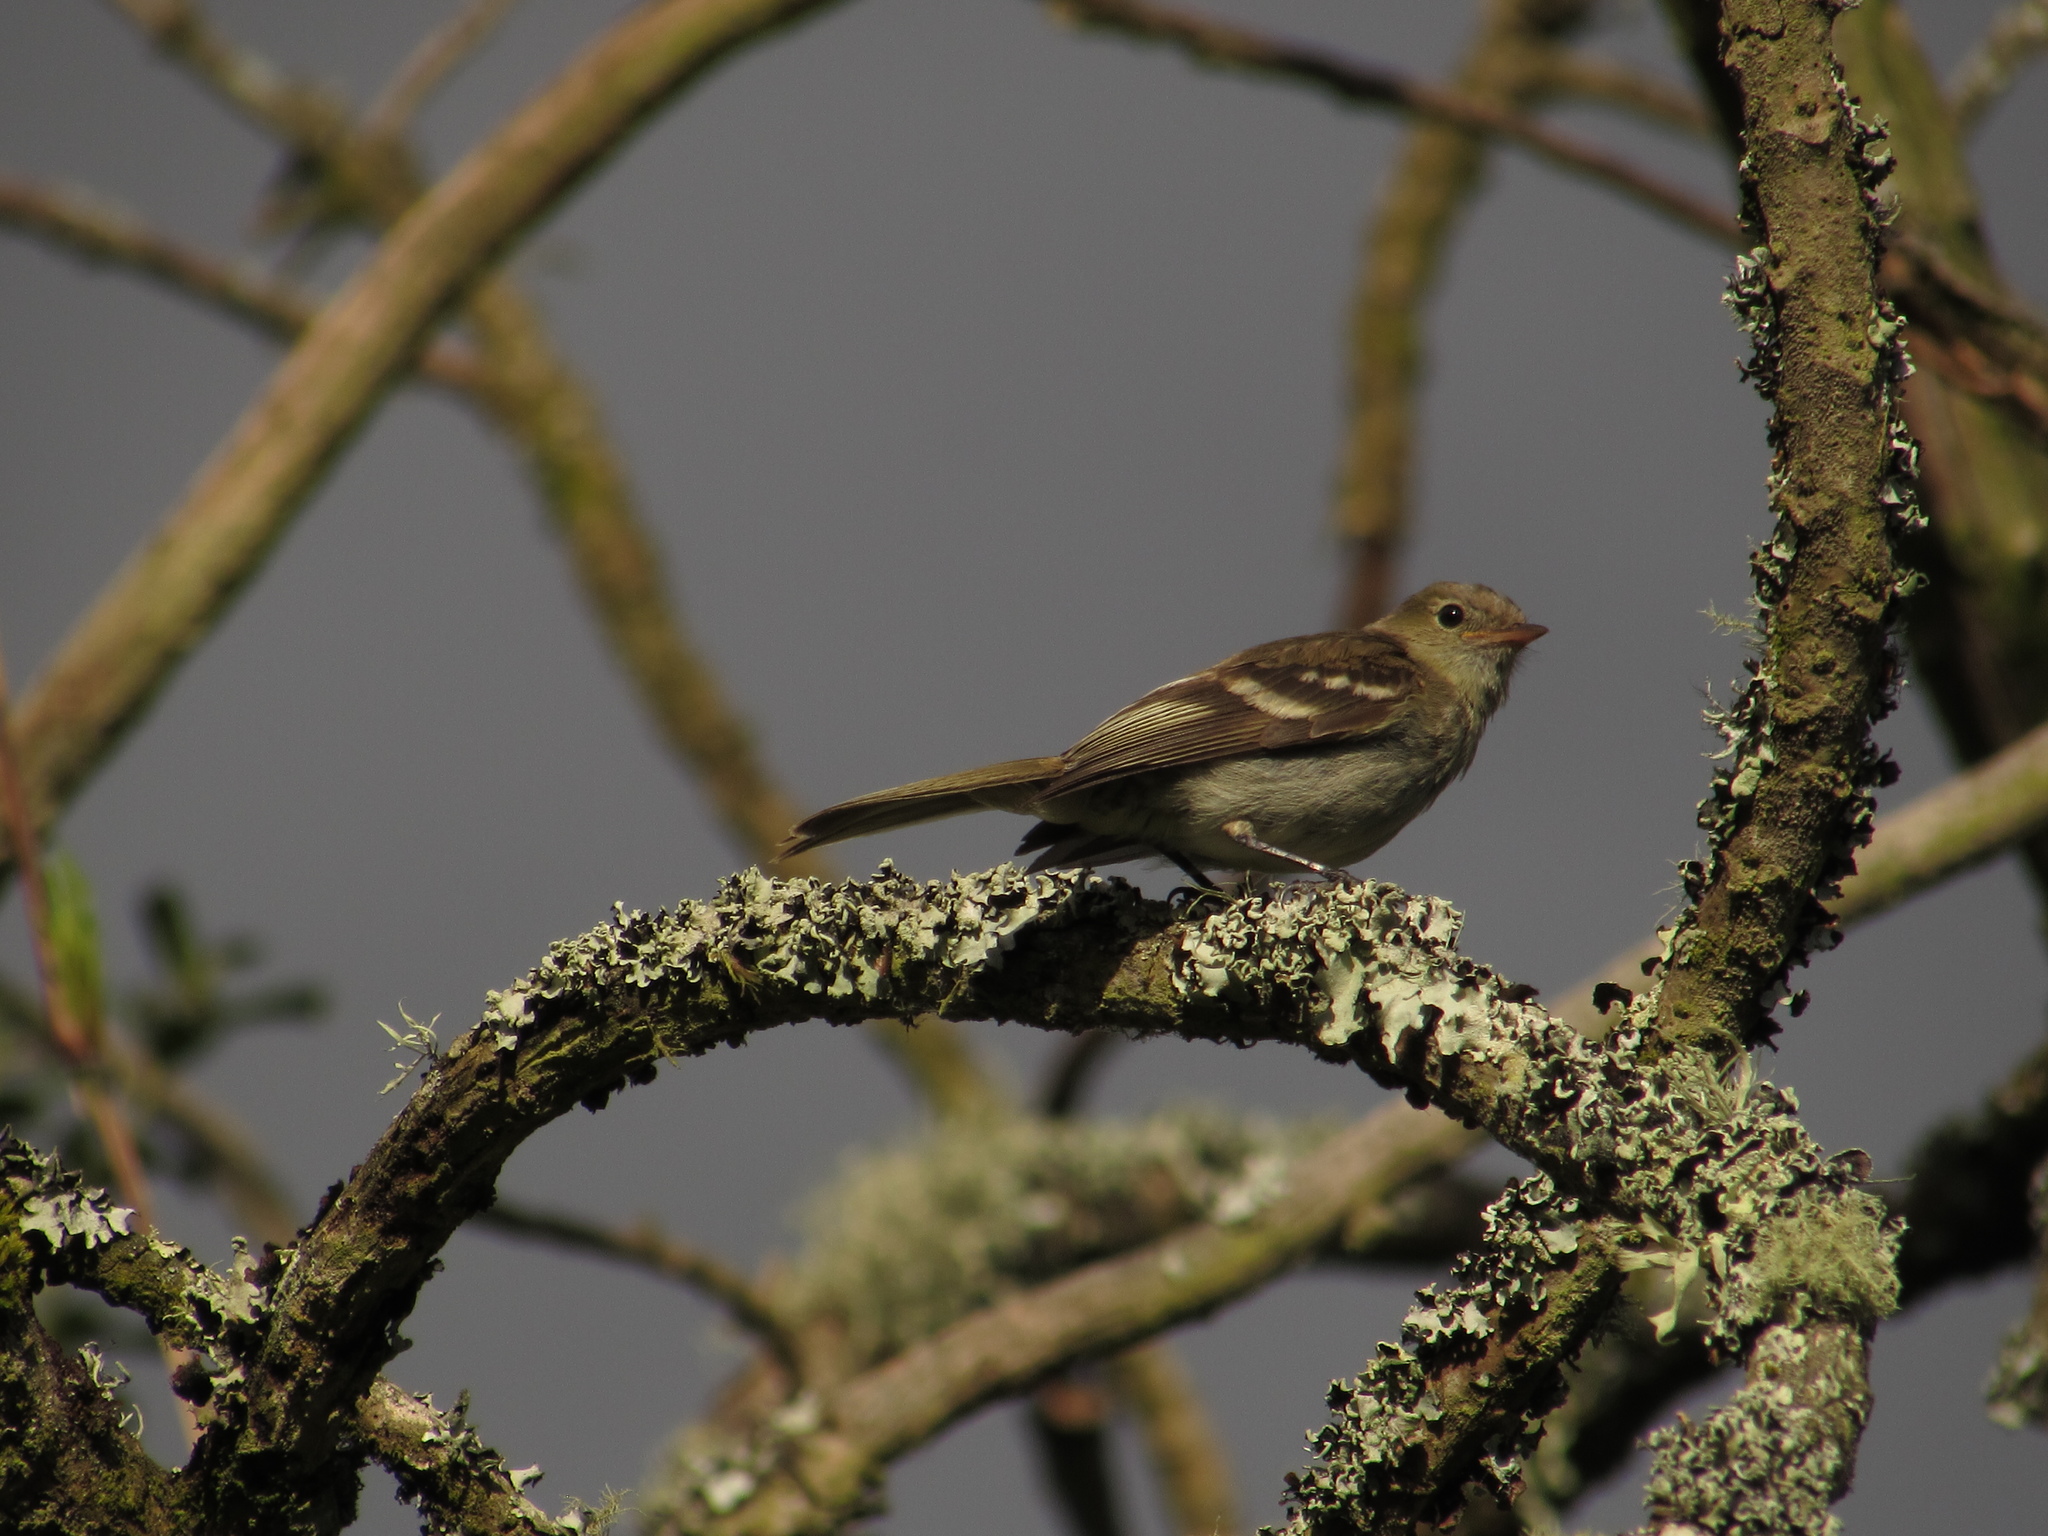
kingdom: Animalia
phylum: Chordata
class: Aves
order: Passeriformes
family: Tyrannidae
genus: Elaenia
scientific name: Elaenia frantzii
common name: Mountain elaenia
